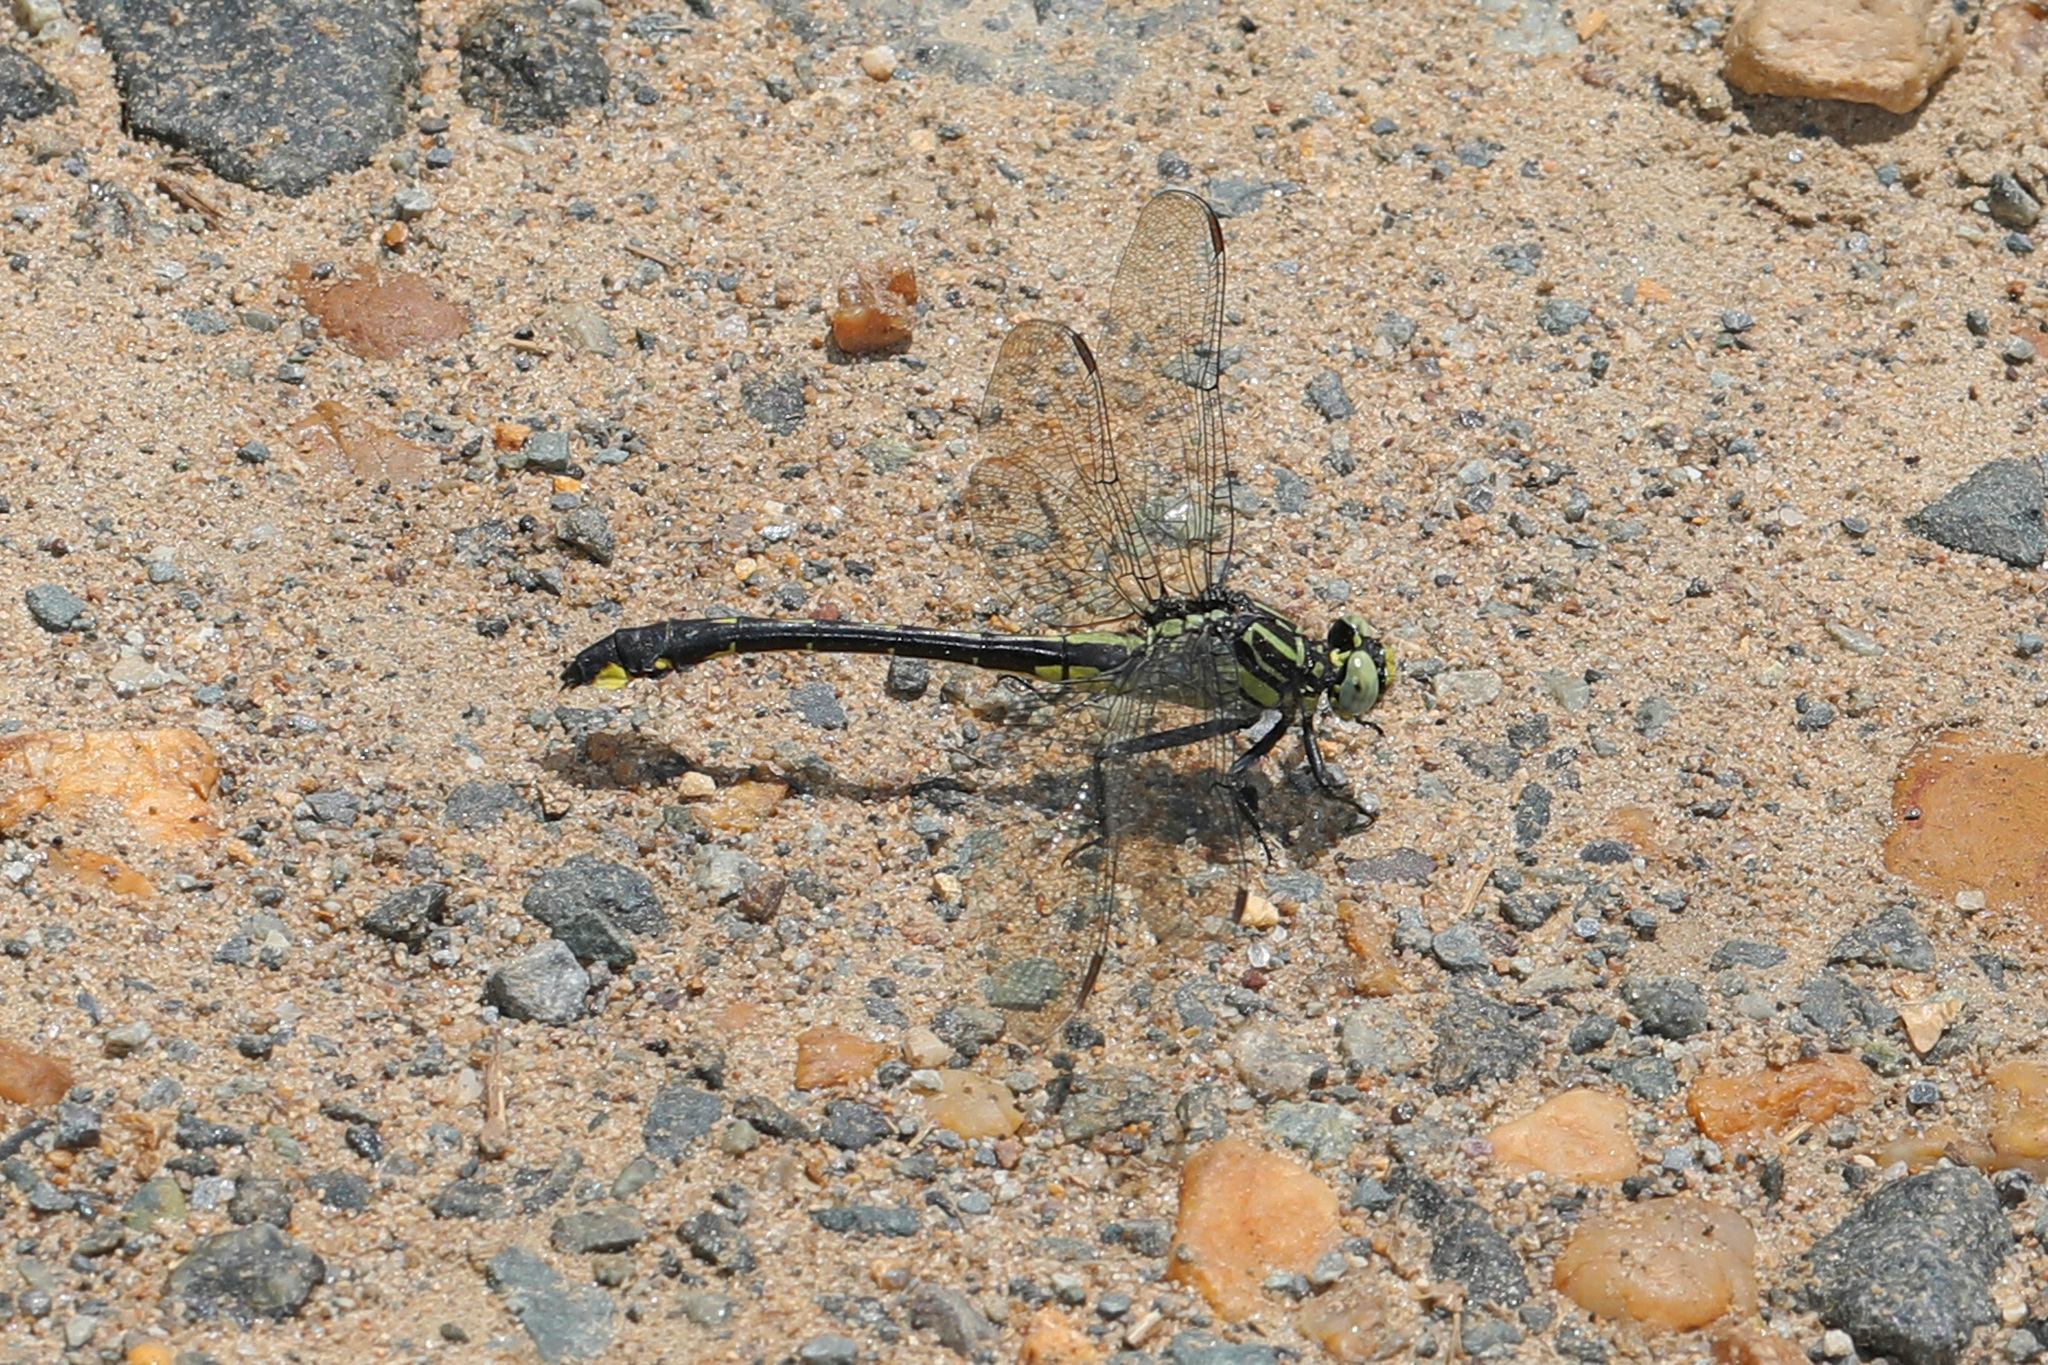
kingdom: Animalia
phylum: Arthropoda
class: Insecta
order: Odonata
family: Gomphidae
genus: Gomphurus
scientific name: Gomphurus vastus
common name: Cobra clubtail
